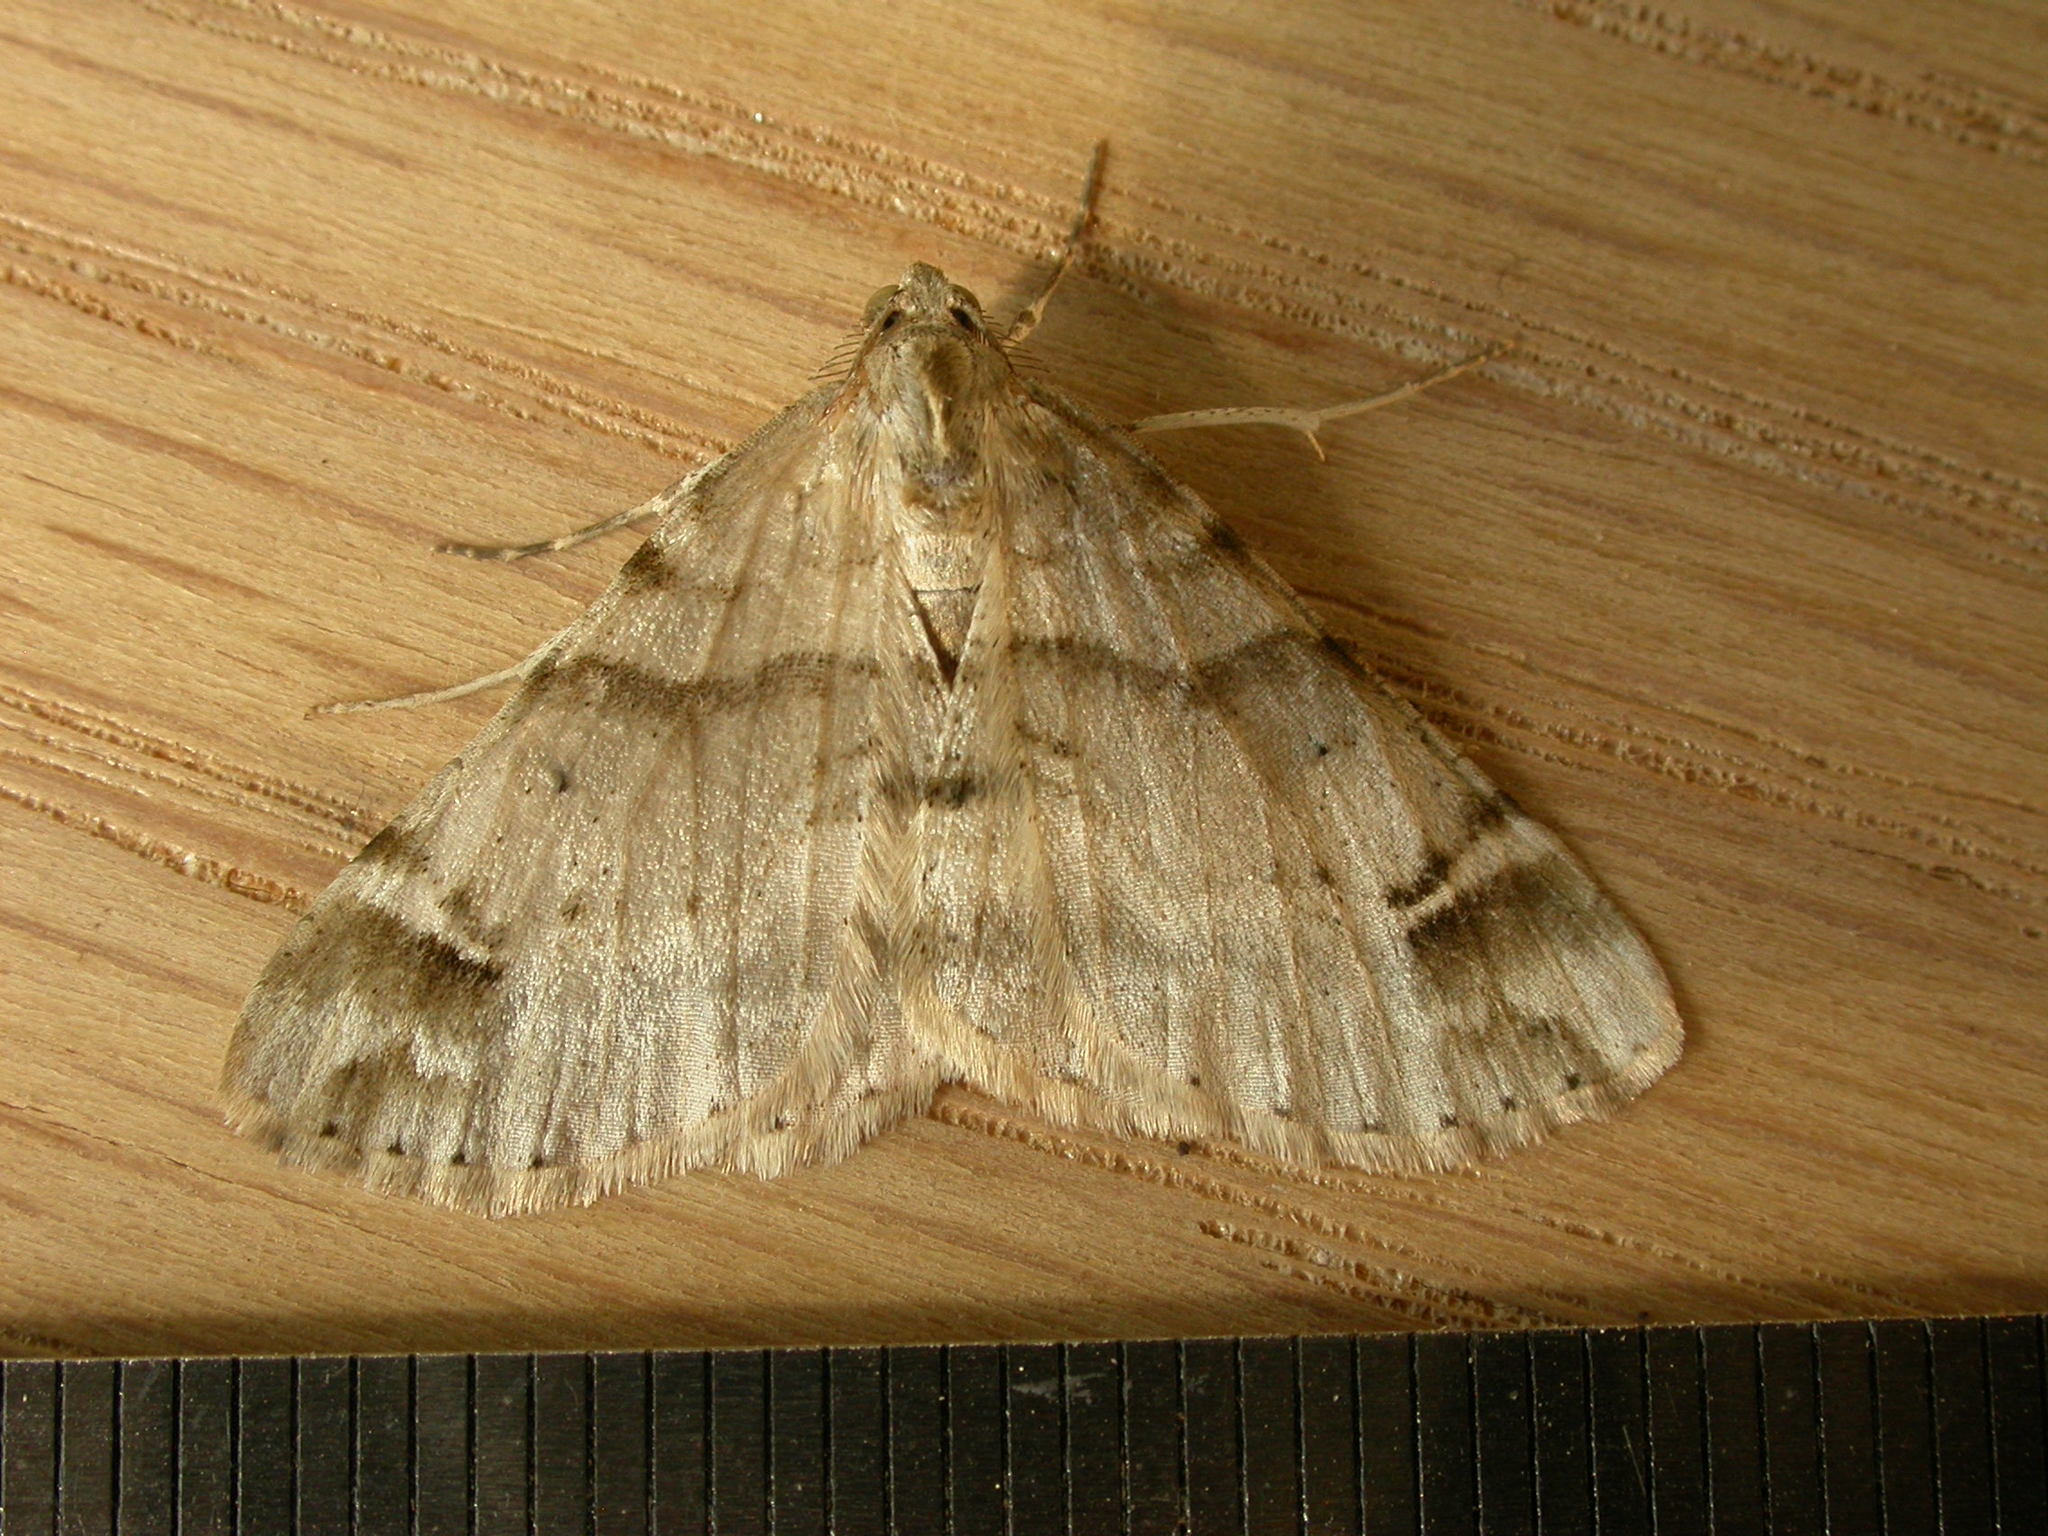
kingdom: Animalia
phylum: Arthropoda
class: Insecta
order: Lepidoptera
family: Geometridae
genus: Syneora
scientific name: Syneora hemeropa
